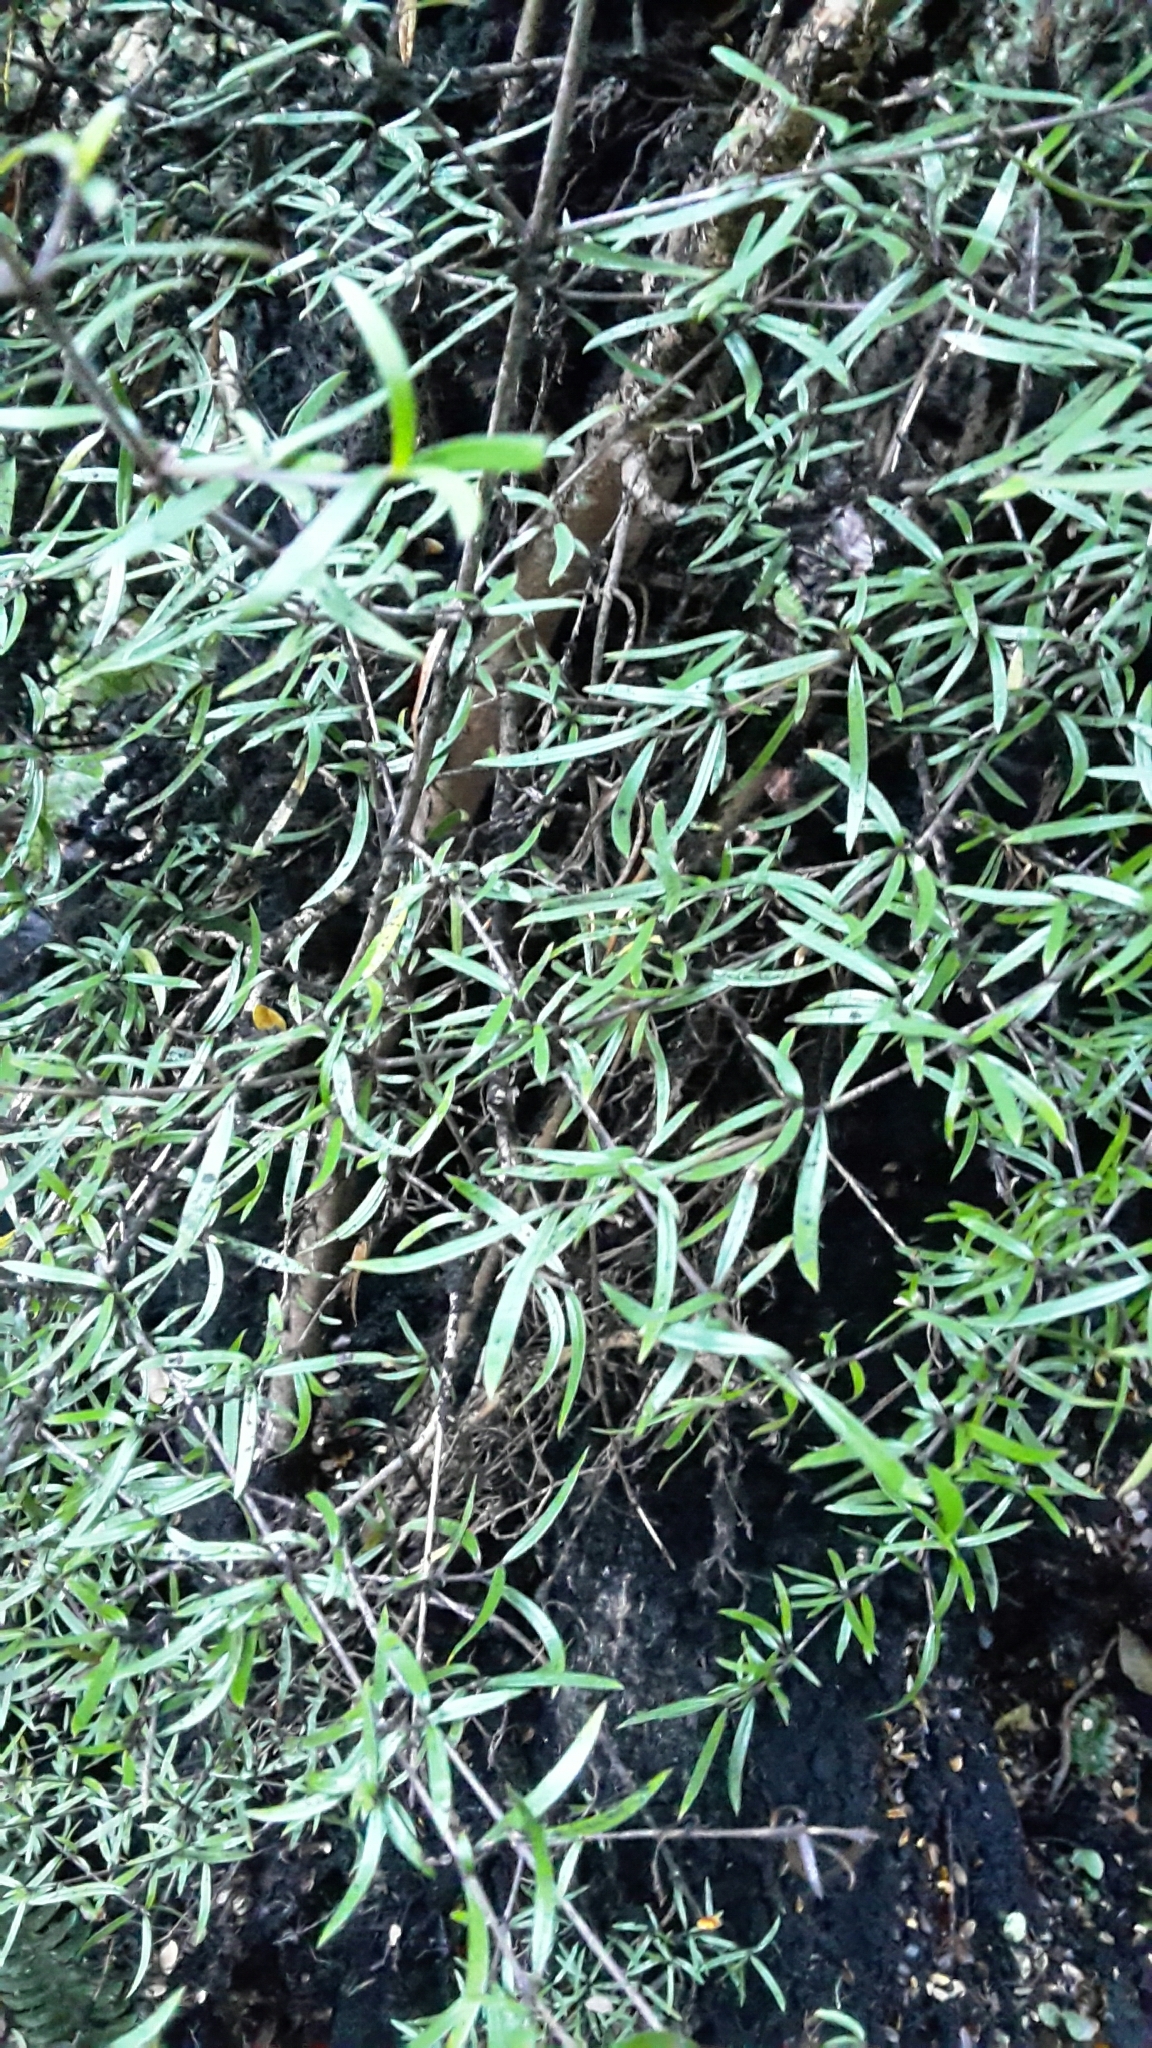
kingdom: Plantae
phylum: Tracheophyta
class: Magnoliopsida
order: Gentianales
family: Rubiaceae
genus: Coprosma
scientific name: Coprosma linariifolia
